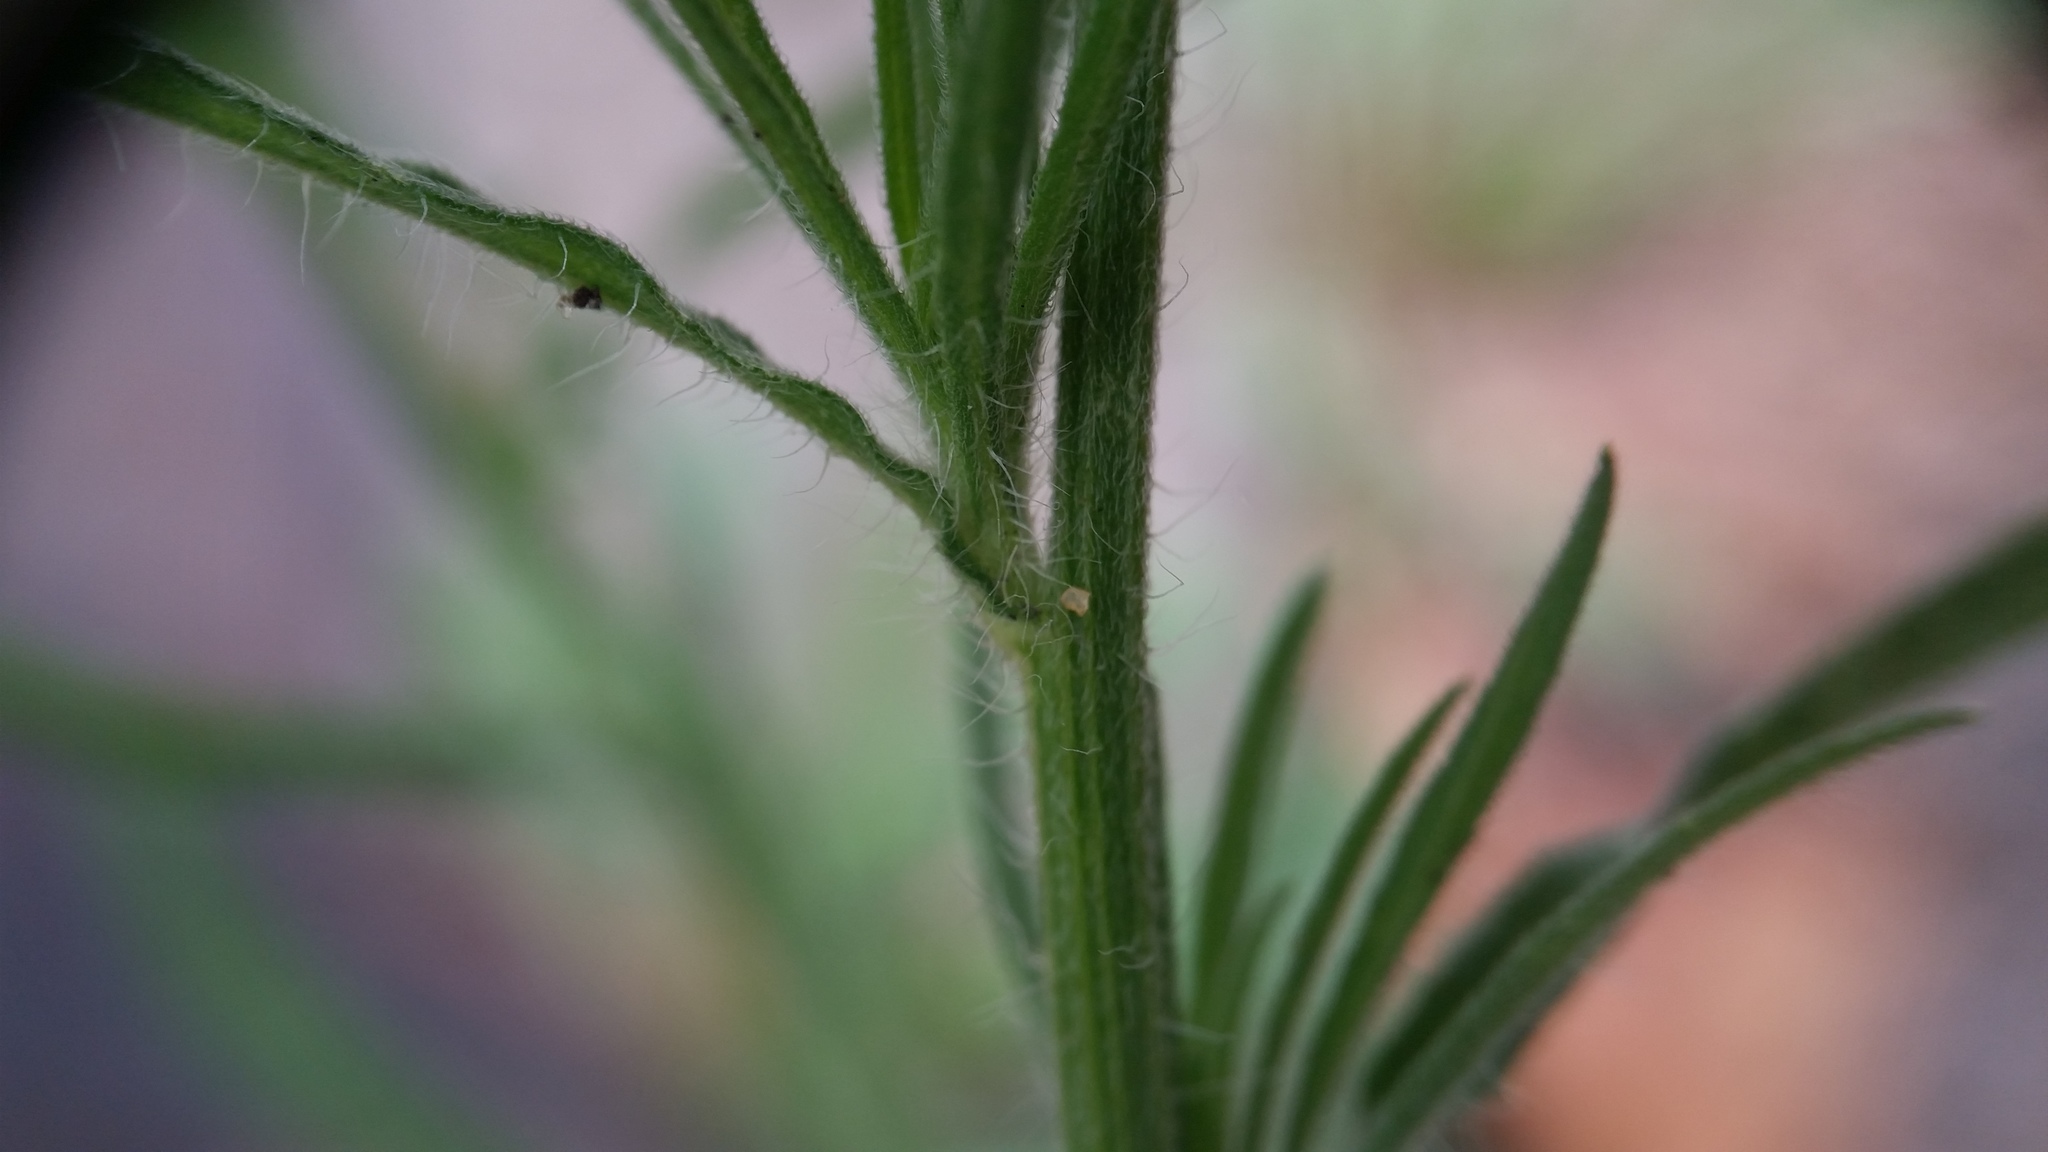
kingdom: Plantae
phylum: Tracheophyta
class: Magnoliopsida
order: Asterales
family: Asteraceae
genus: Erigeron
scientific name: Erigeron bonariensis
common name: Argentine fleabane
